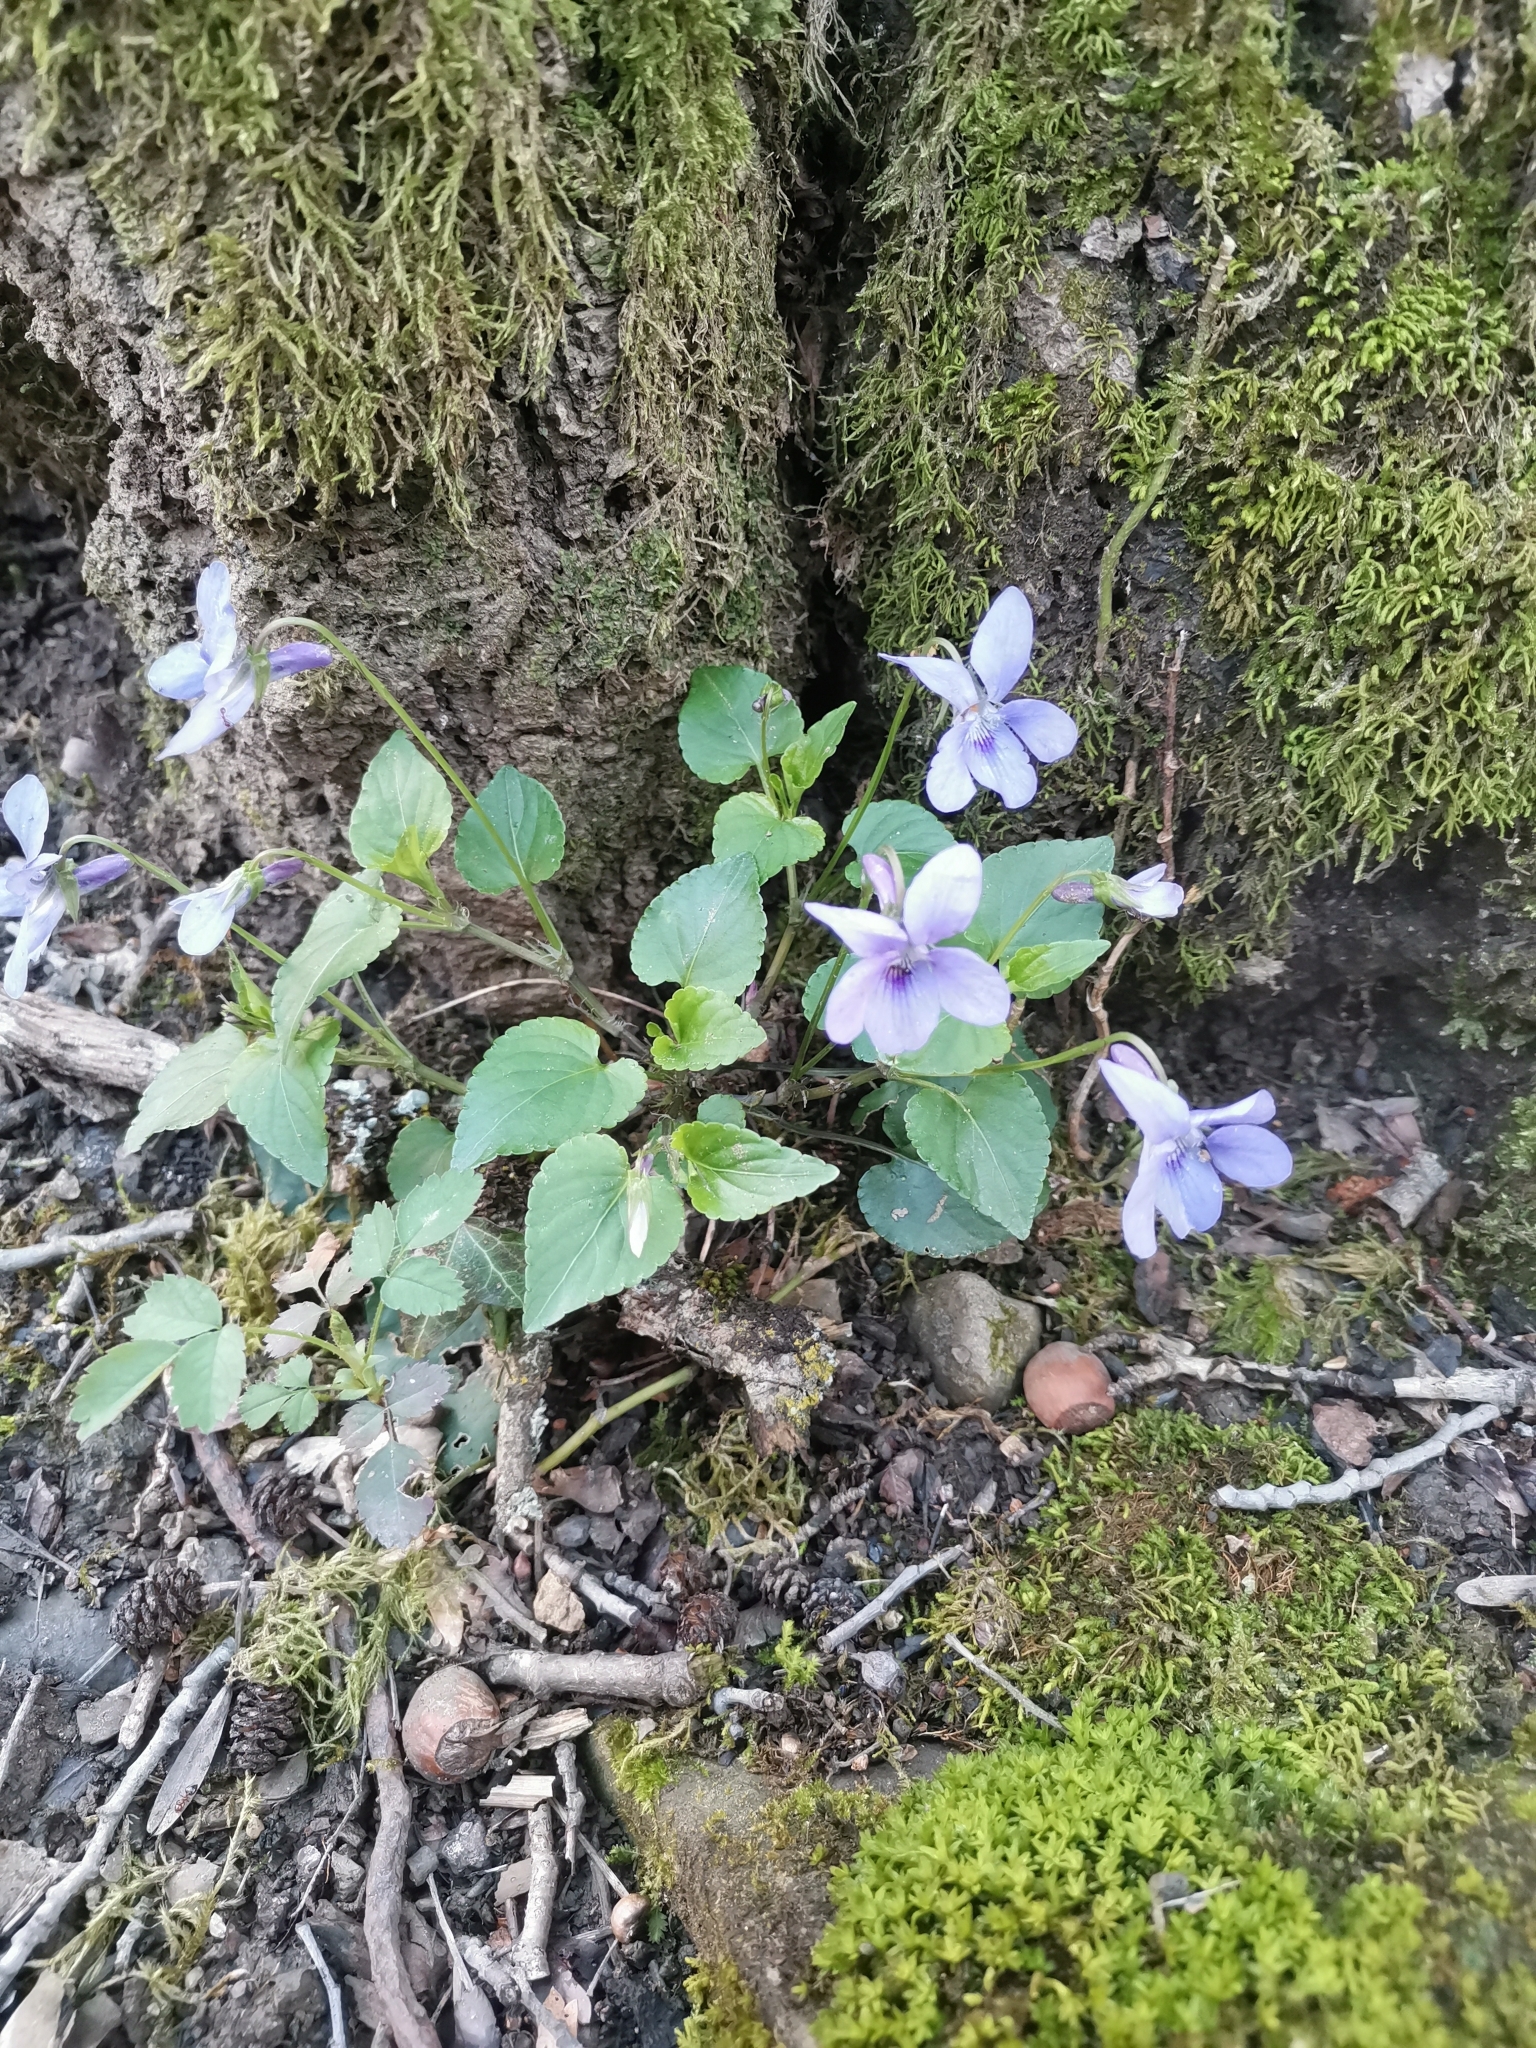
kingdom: Plantae
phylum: Tracheophyta
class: Magnoliopsida
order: Malpighiales
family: Violaceae
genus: Viola
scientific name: Viola riviniana
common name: Common dog-violet
